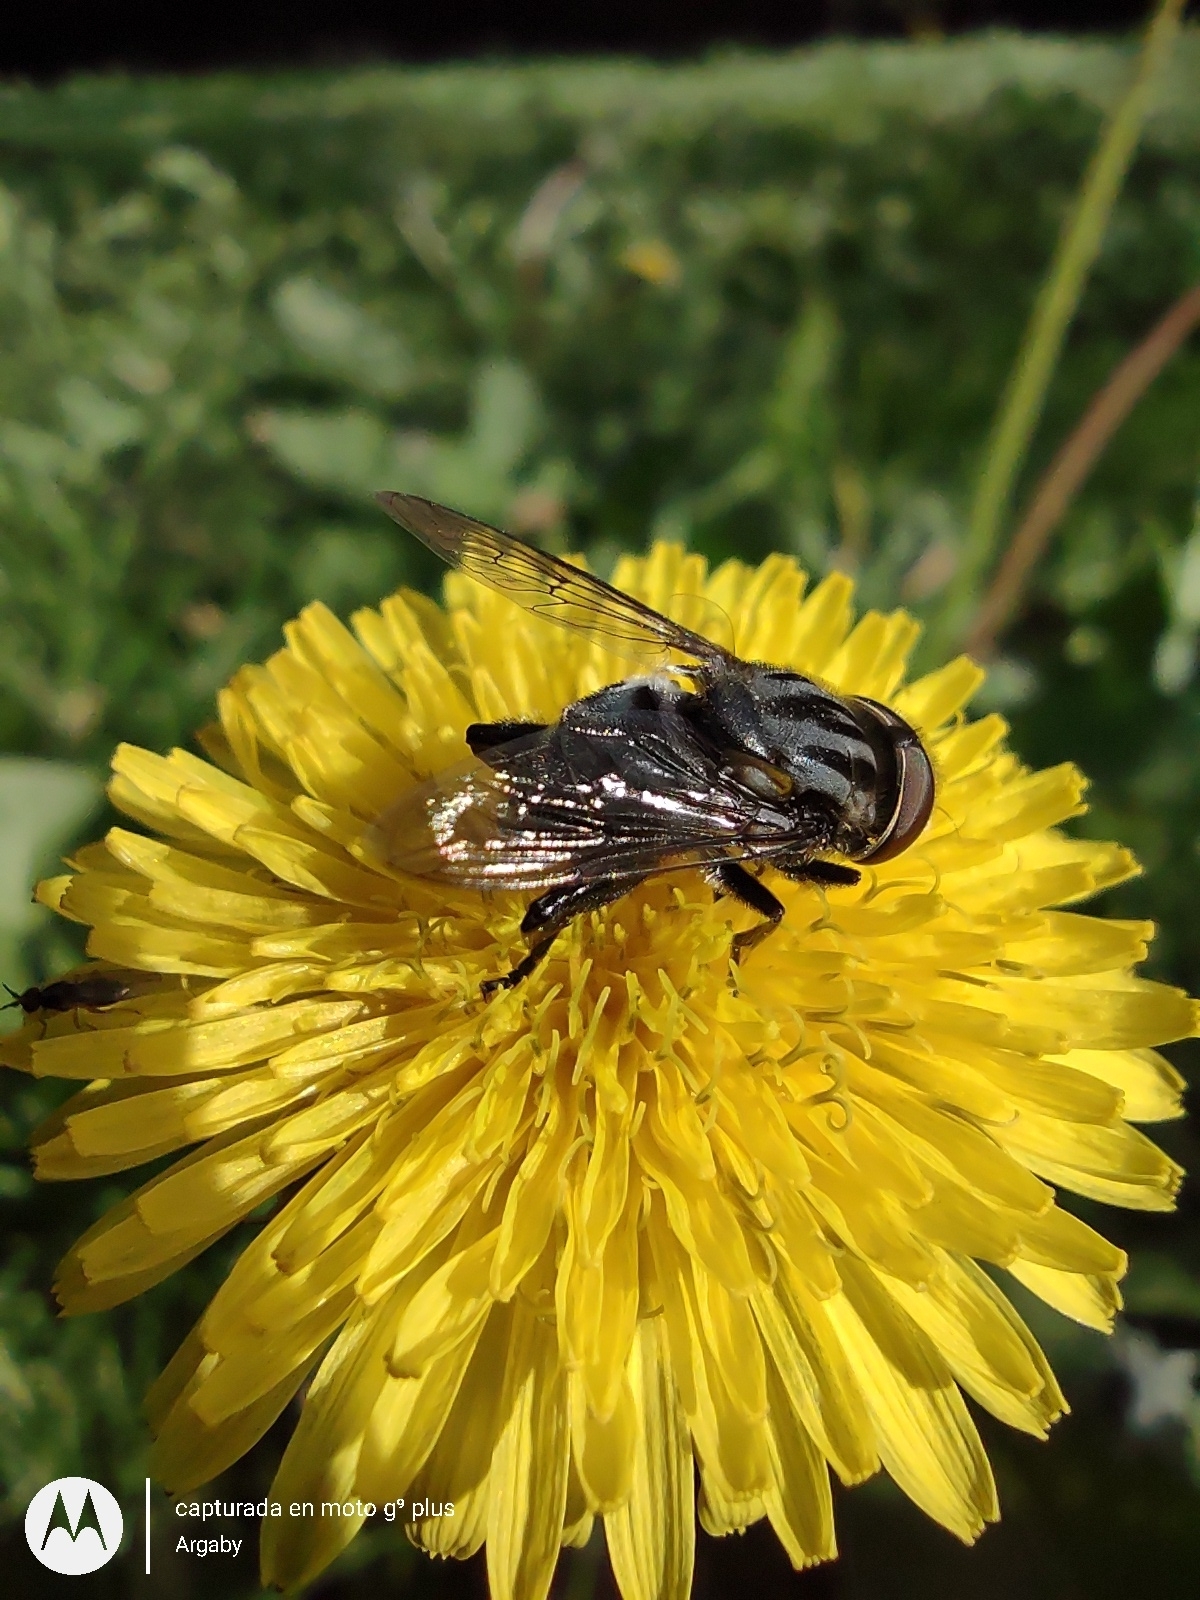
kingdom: Animalia
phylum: Arthropoda
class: Insecta
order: Diptera
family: Syrphidae
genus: Palpada
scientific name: Palpada furcata
